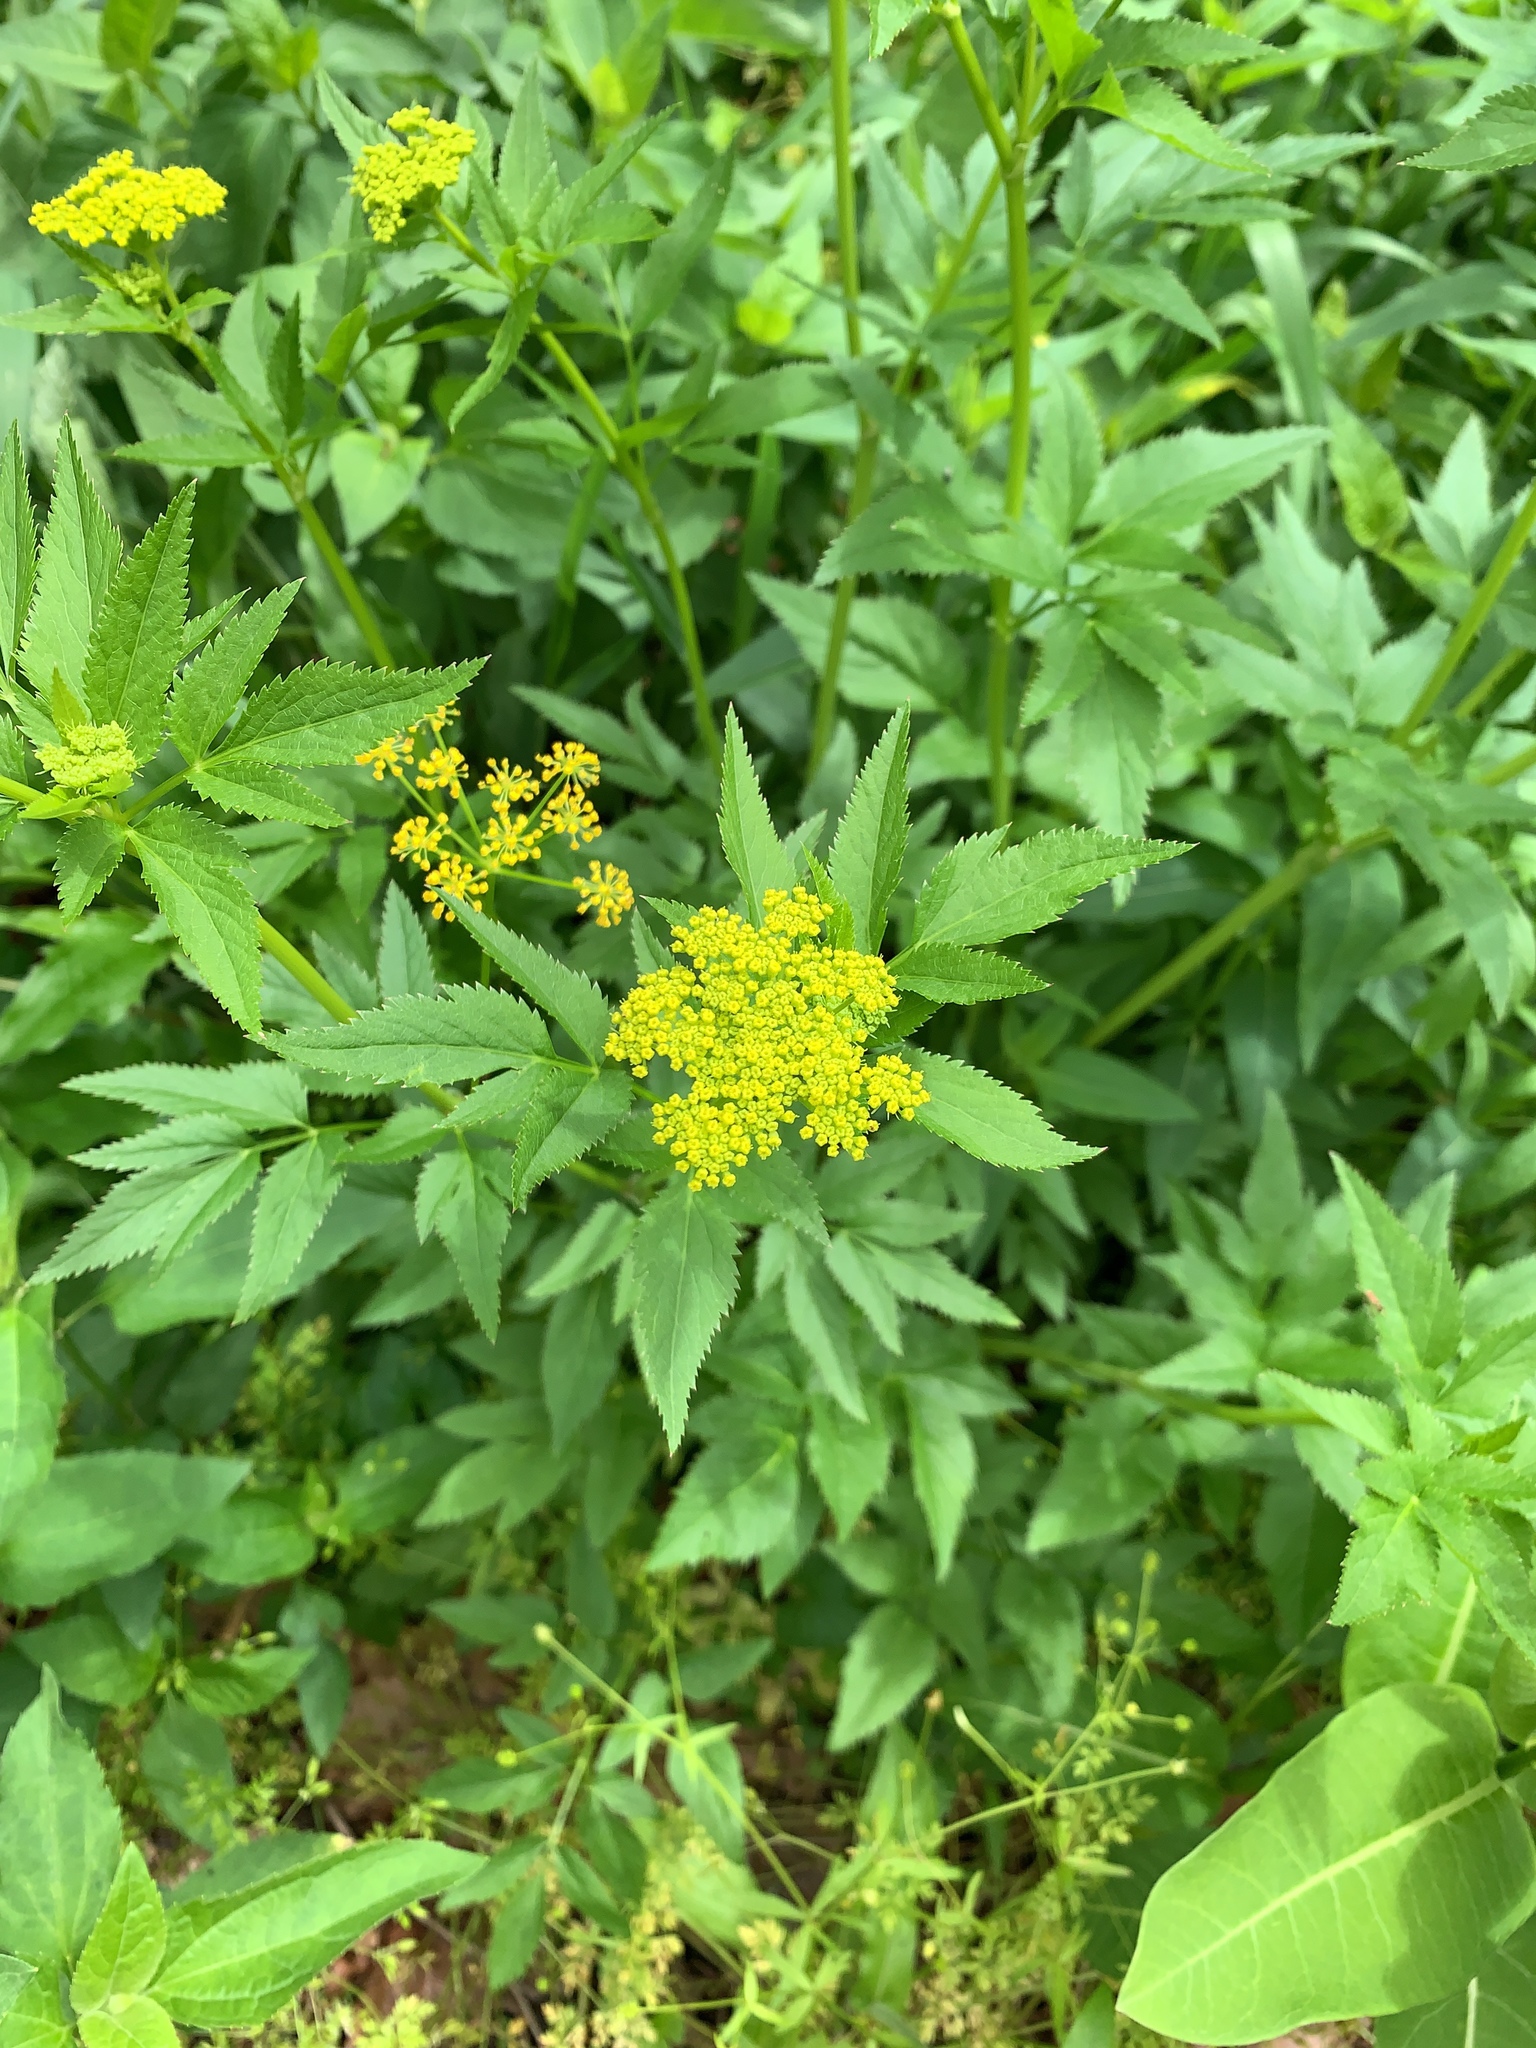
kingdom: Plantae
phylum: Tracheophyta
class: Magnoliopsida
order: Apiales
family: Apiaceae
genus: Zizia
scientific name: Zizia aurea
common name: Golden alexanders
